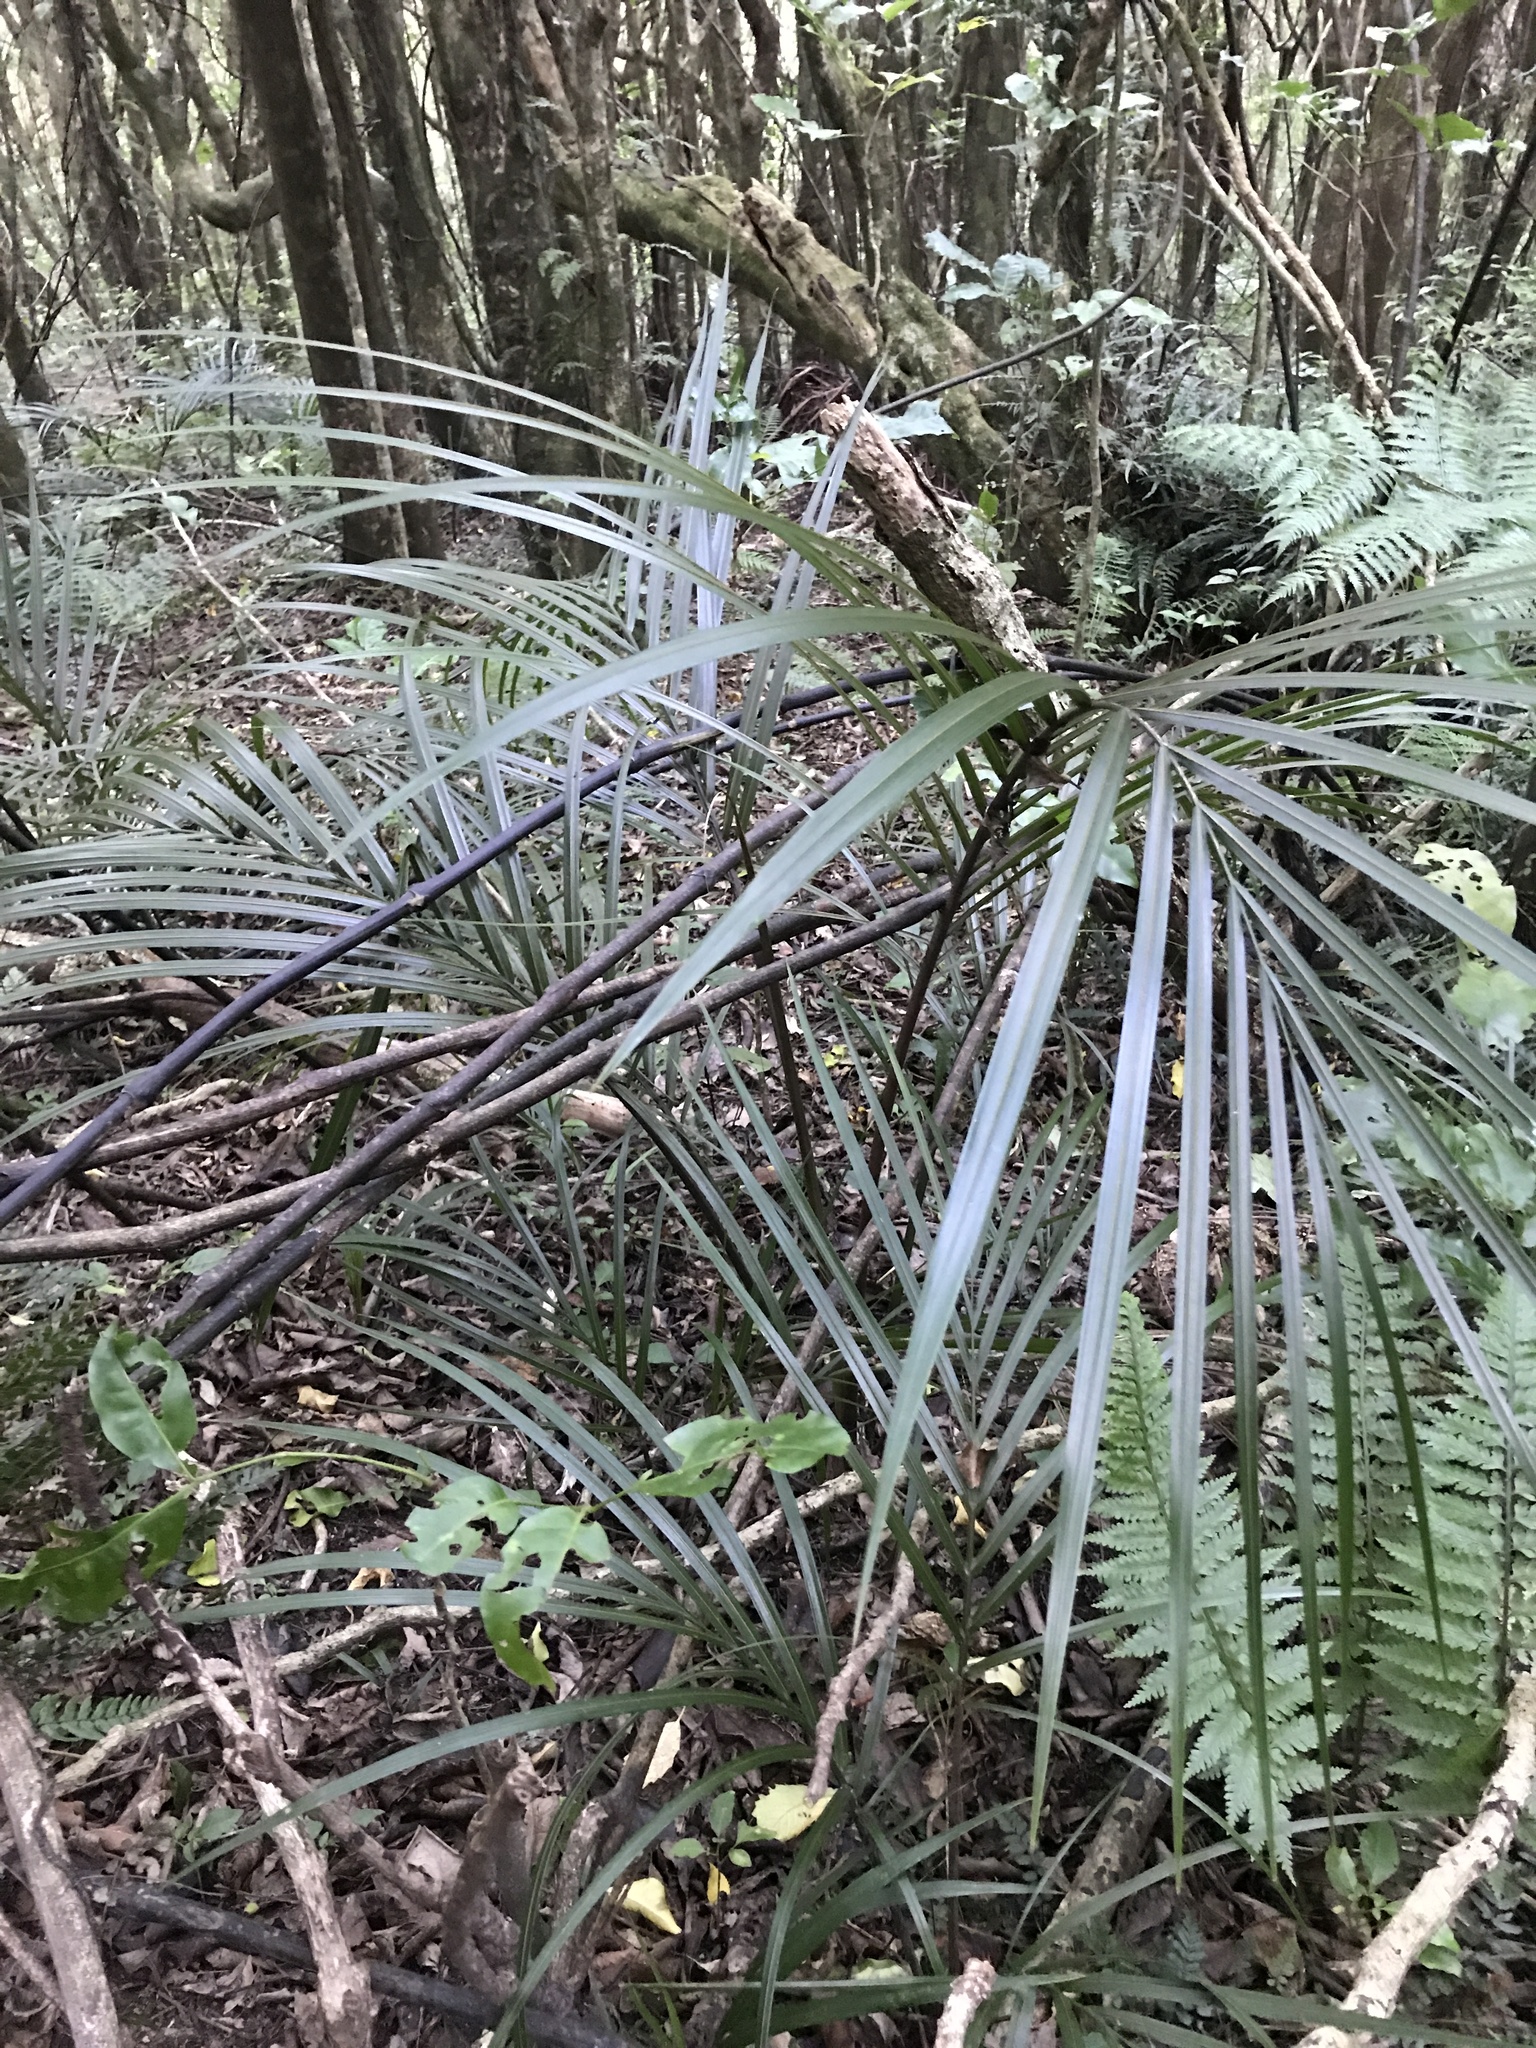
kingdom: Plantae
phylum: Tracheophyta
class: Liliopsida
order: Arecales
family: Arecaceae
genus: Rhopalostylis
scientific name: Rhopalostylis sapida
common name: Feather-duster palm
